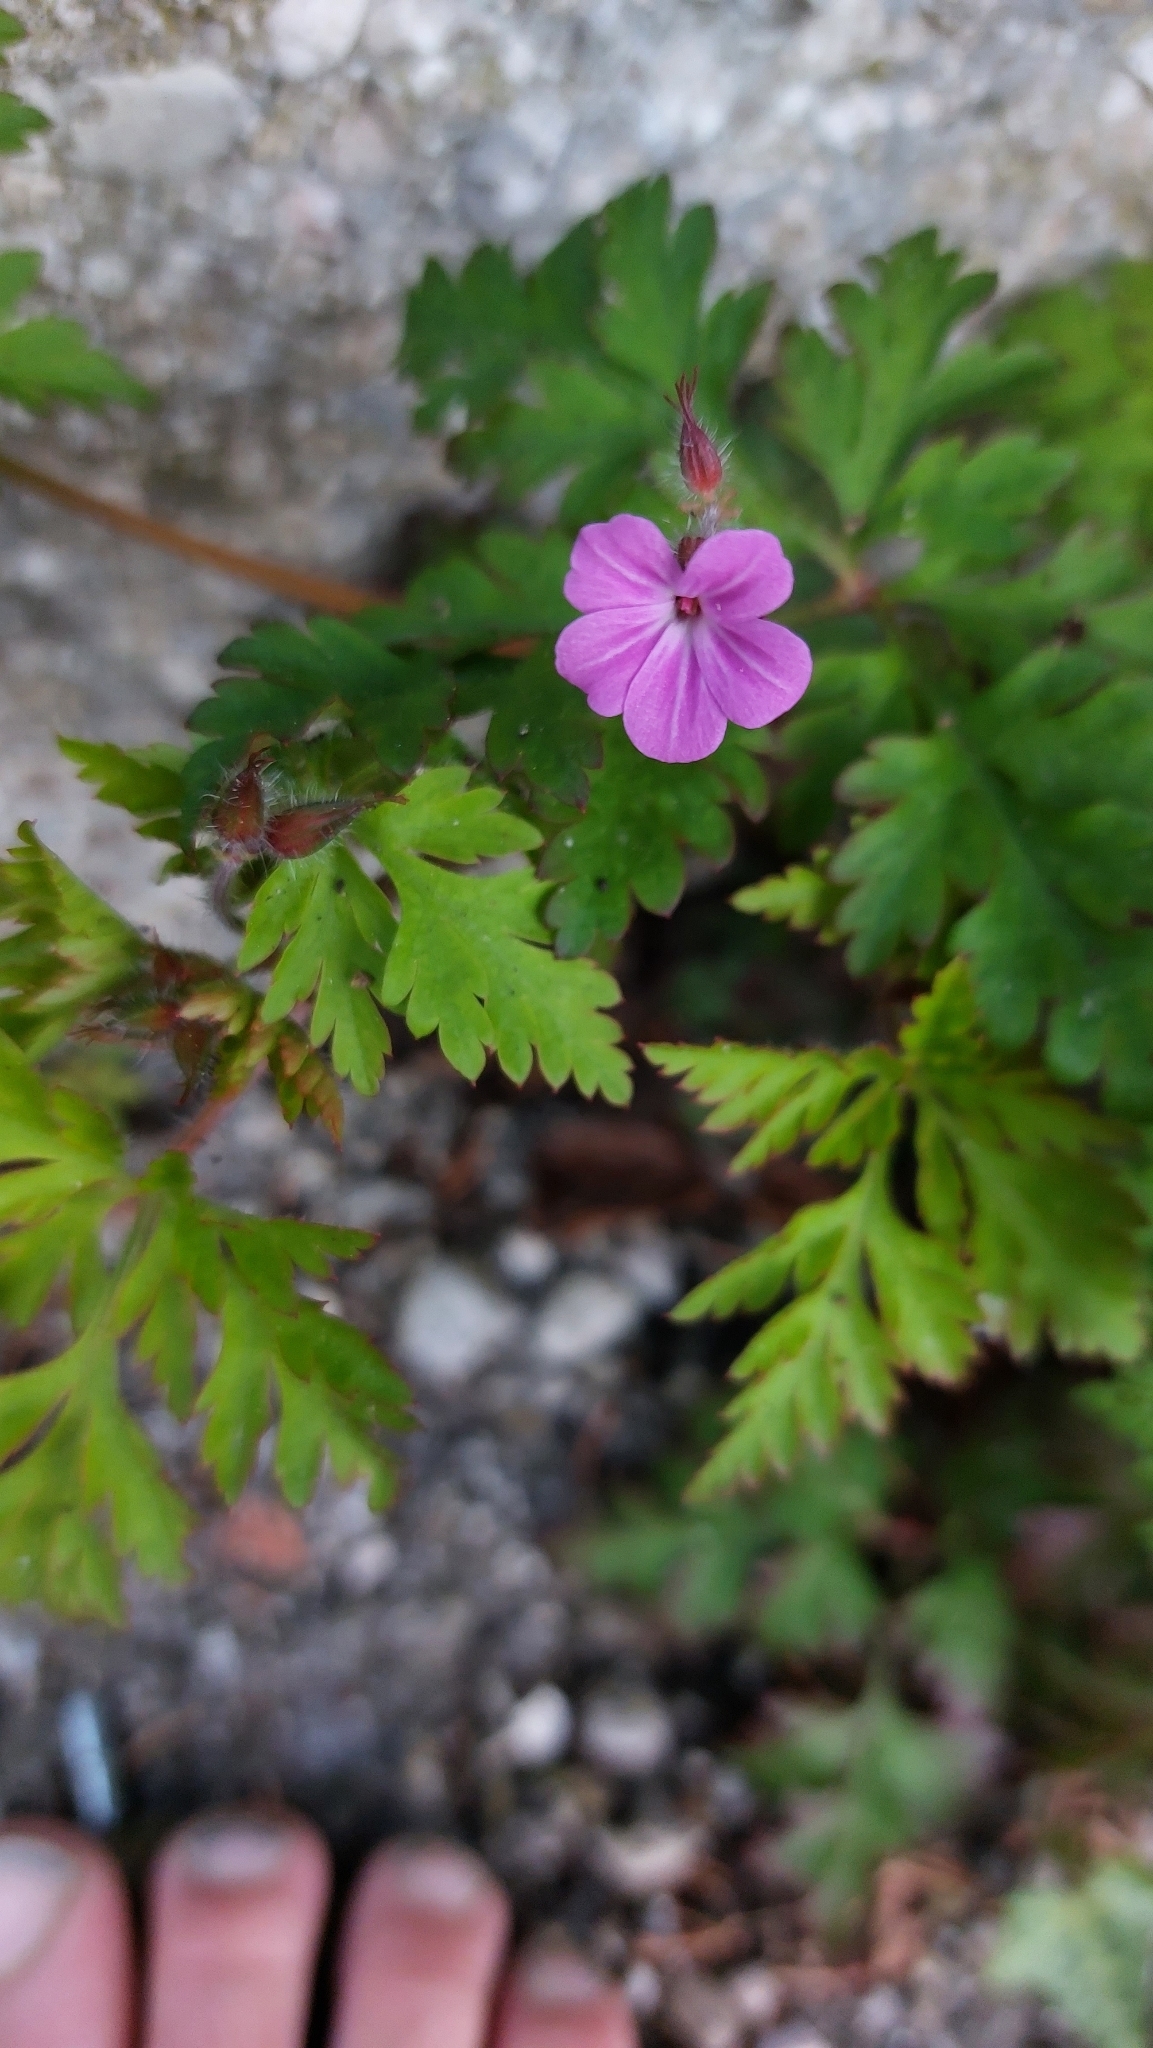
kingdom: Plantae
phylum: Tracheophyta
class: Magnoliopsida
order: Geraniales
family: Geraniaceae
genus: Geranium
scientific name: Geranium robertianum
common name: Herb-robert
